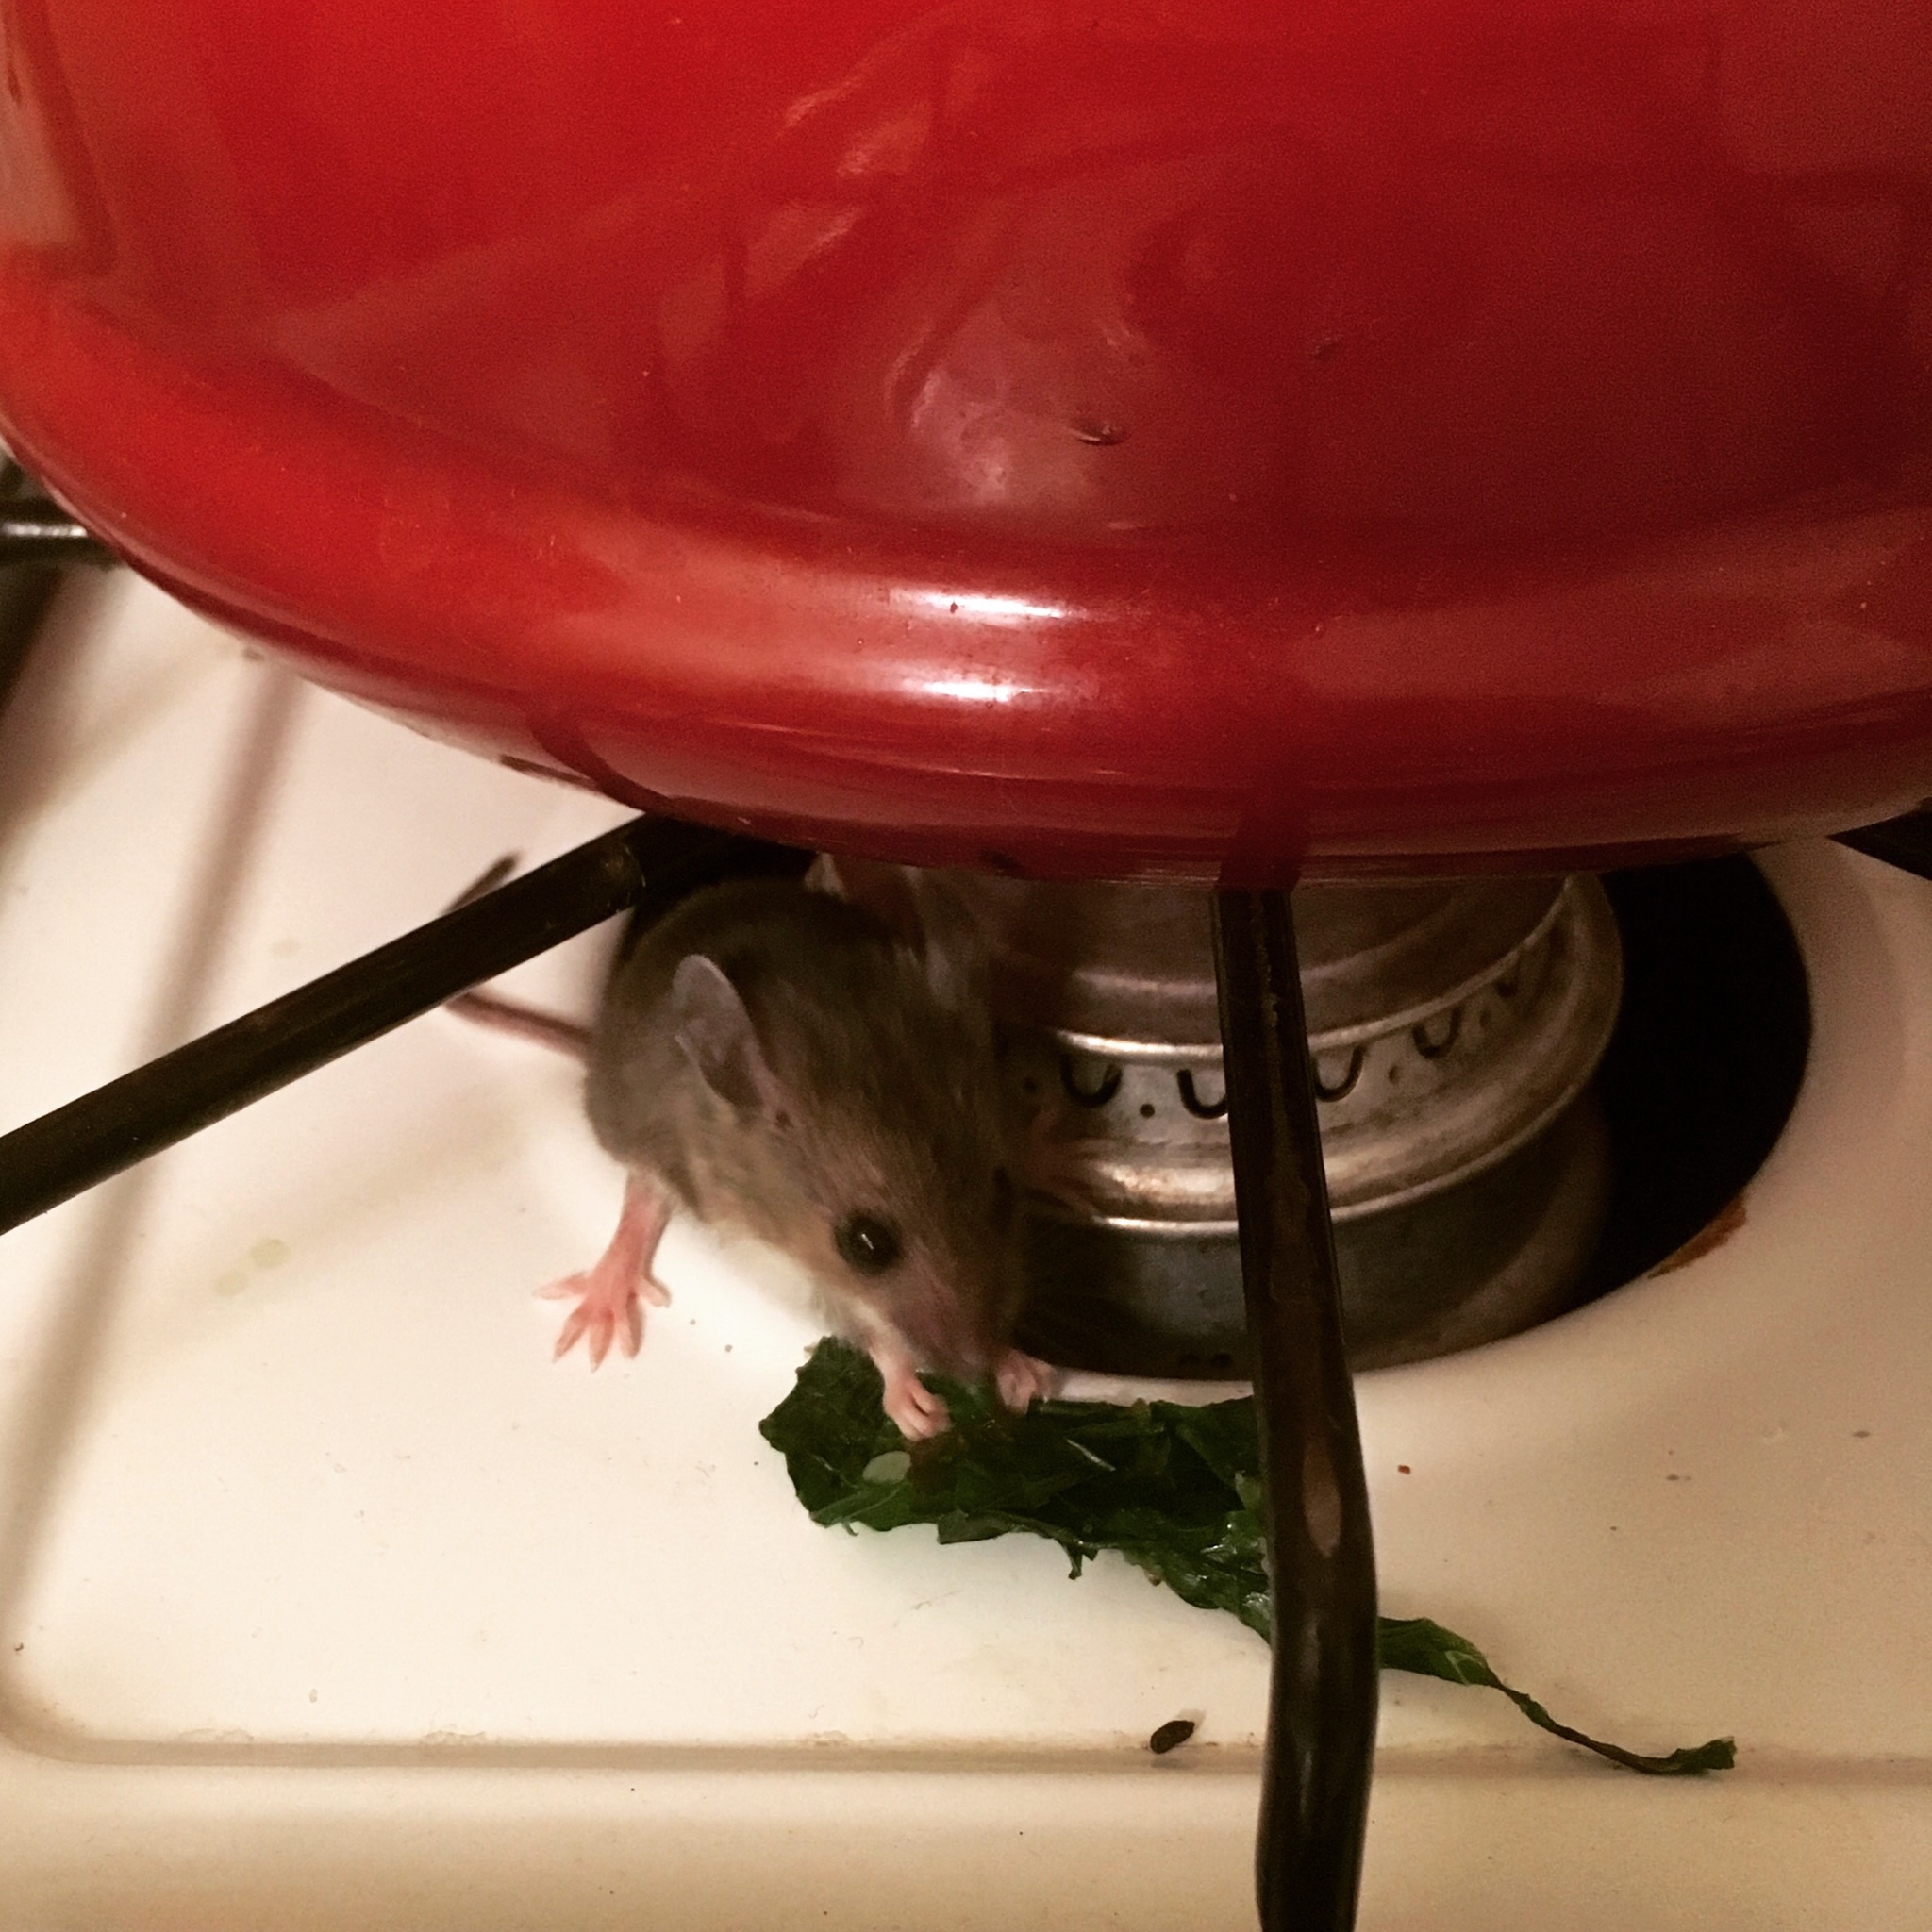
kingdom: Animalia
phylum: Chordata
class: Mammalia
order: Rodentia
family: Cricetidae
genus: Peromyscus
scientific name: Peromyscus maniculatus
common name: Deer mouse
